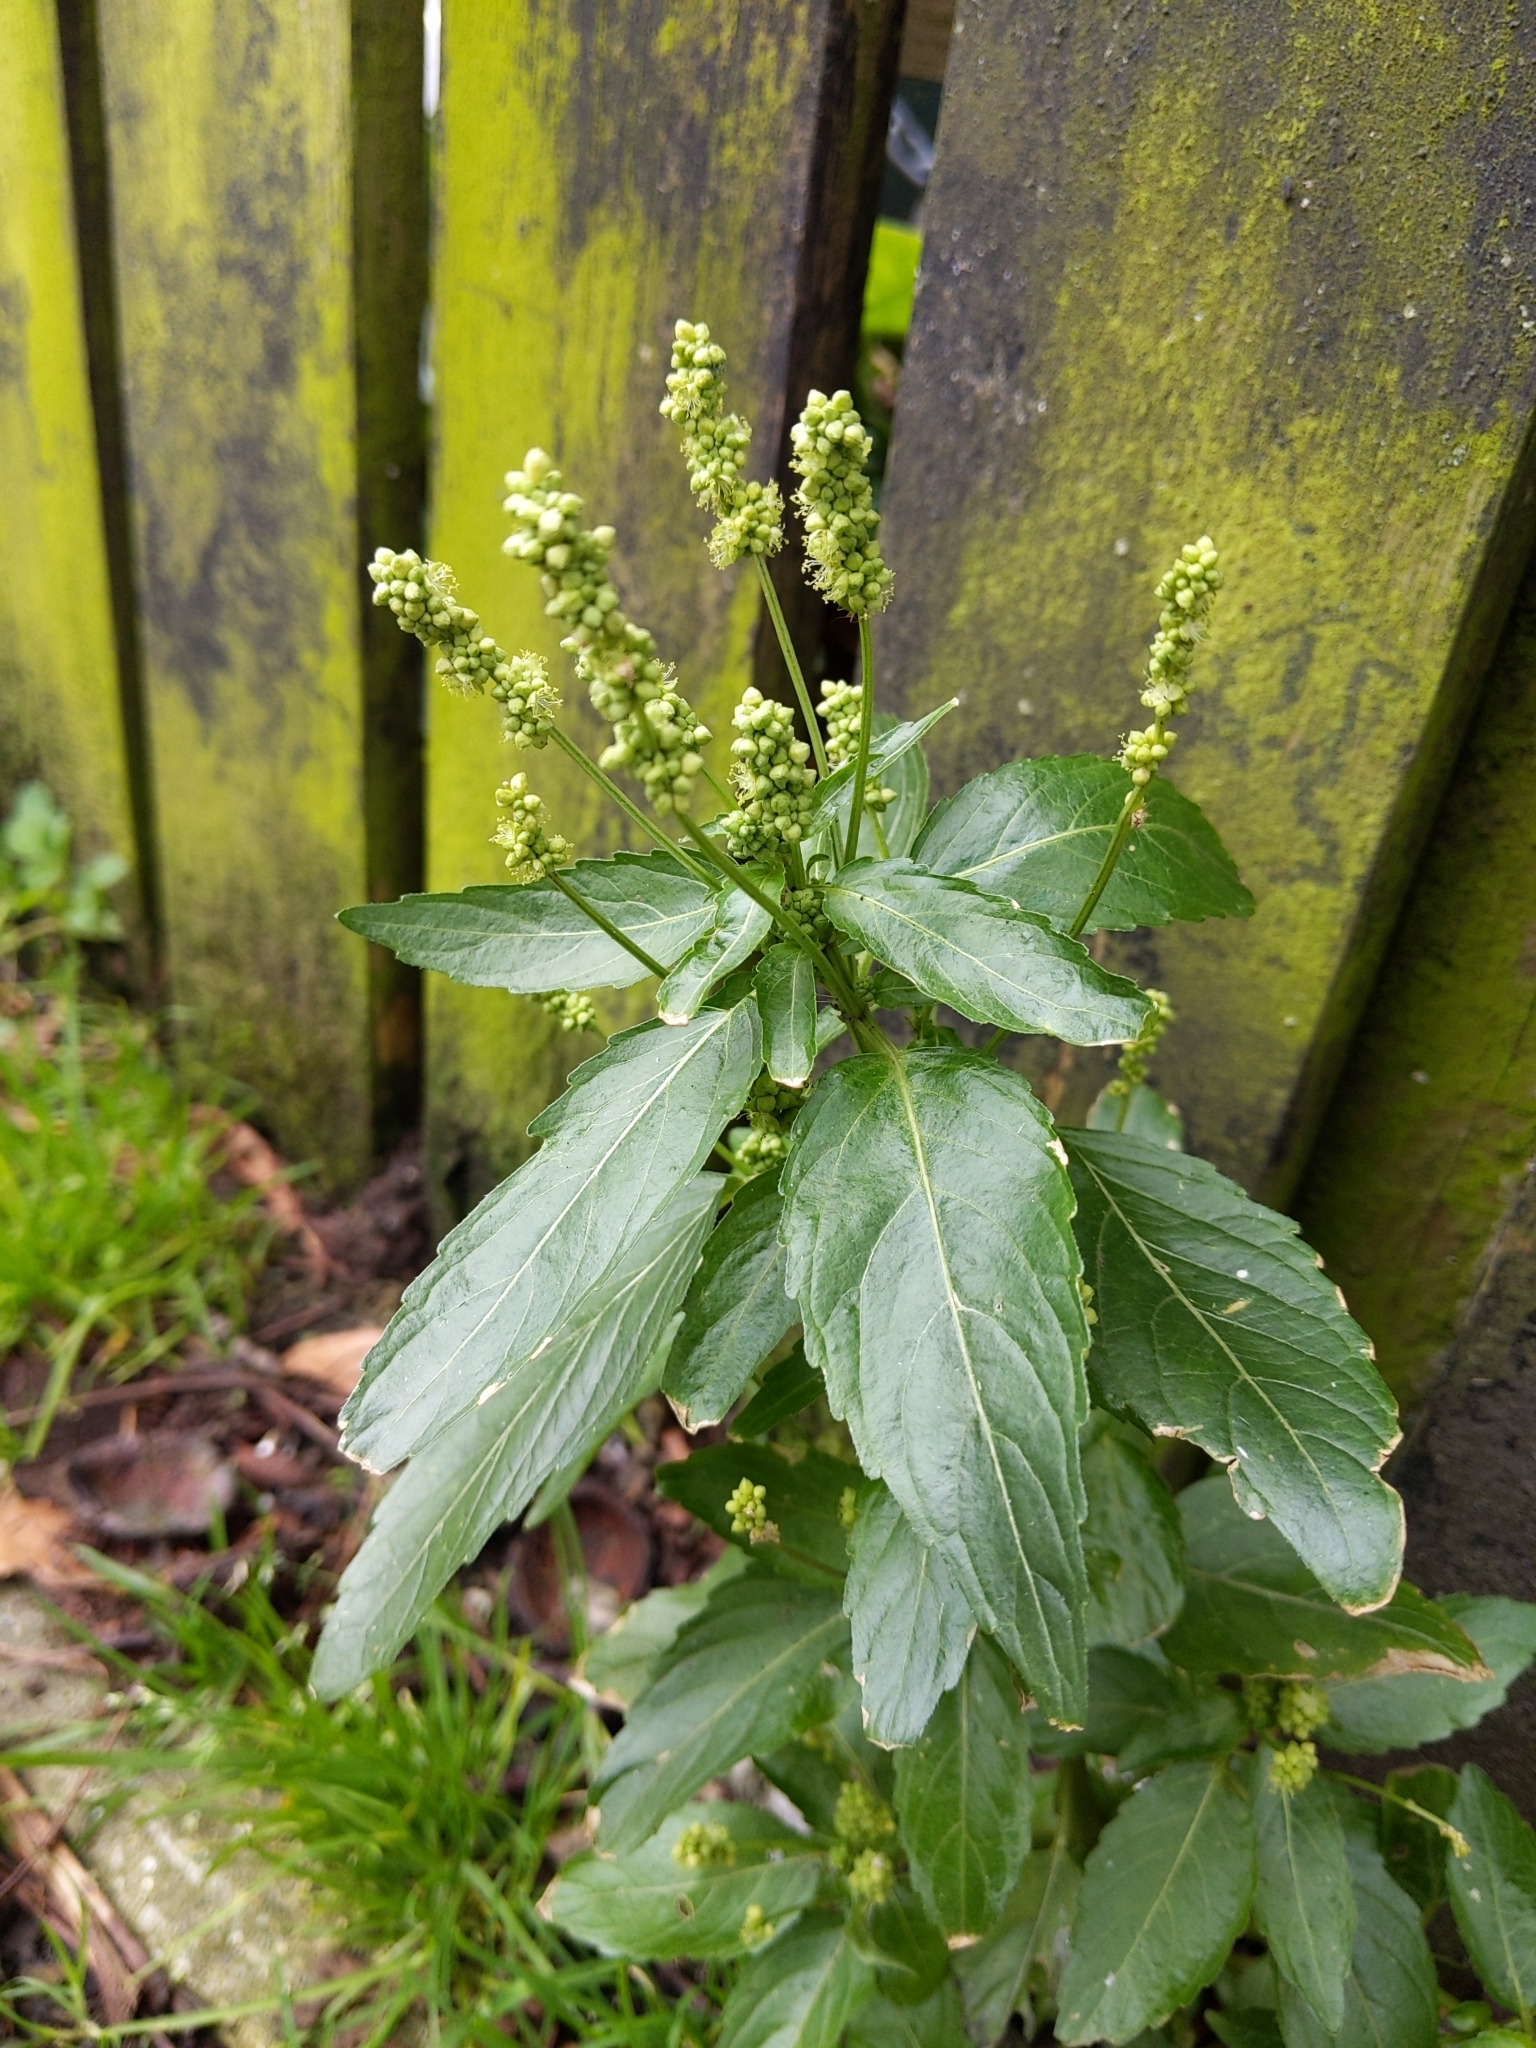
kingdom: Plantae
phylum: Tracheophyta
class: Magnoliopsida
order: Malpighiales
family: Euphorbiaceae
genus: Mercurialis
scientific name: Mercurialis annua
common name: Annual mercury
